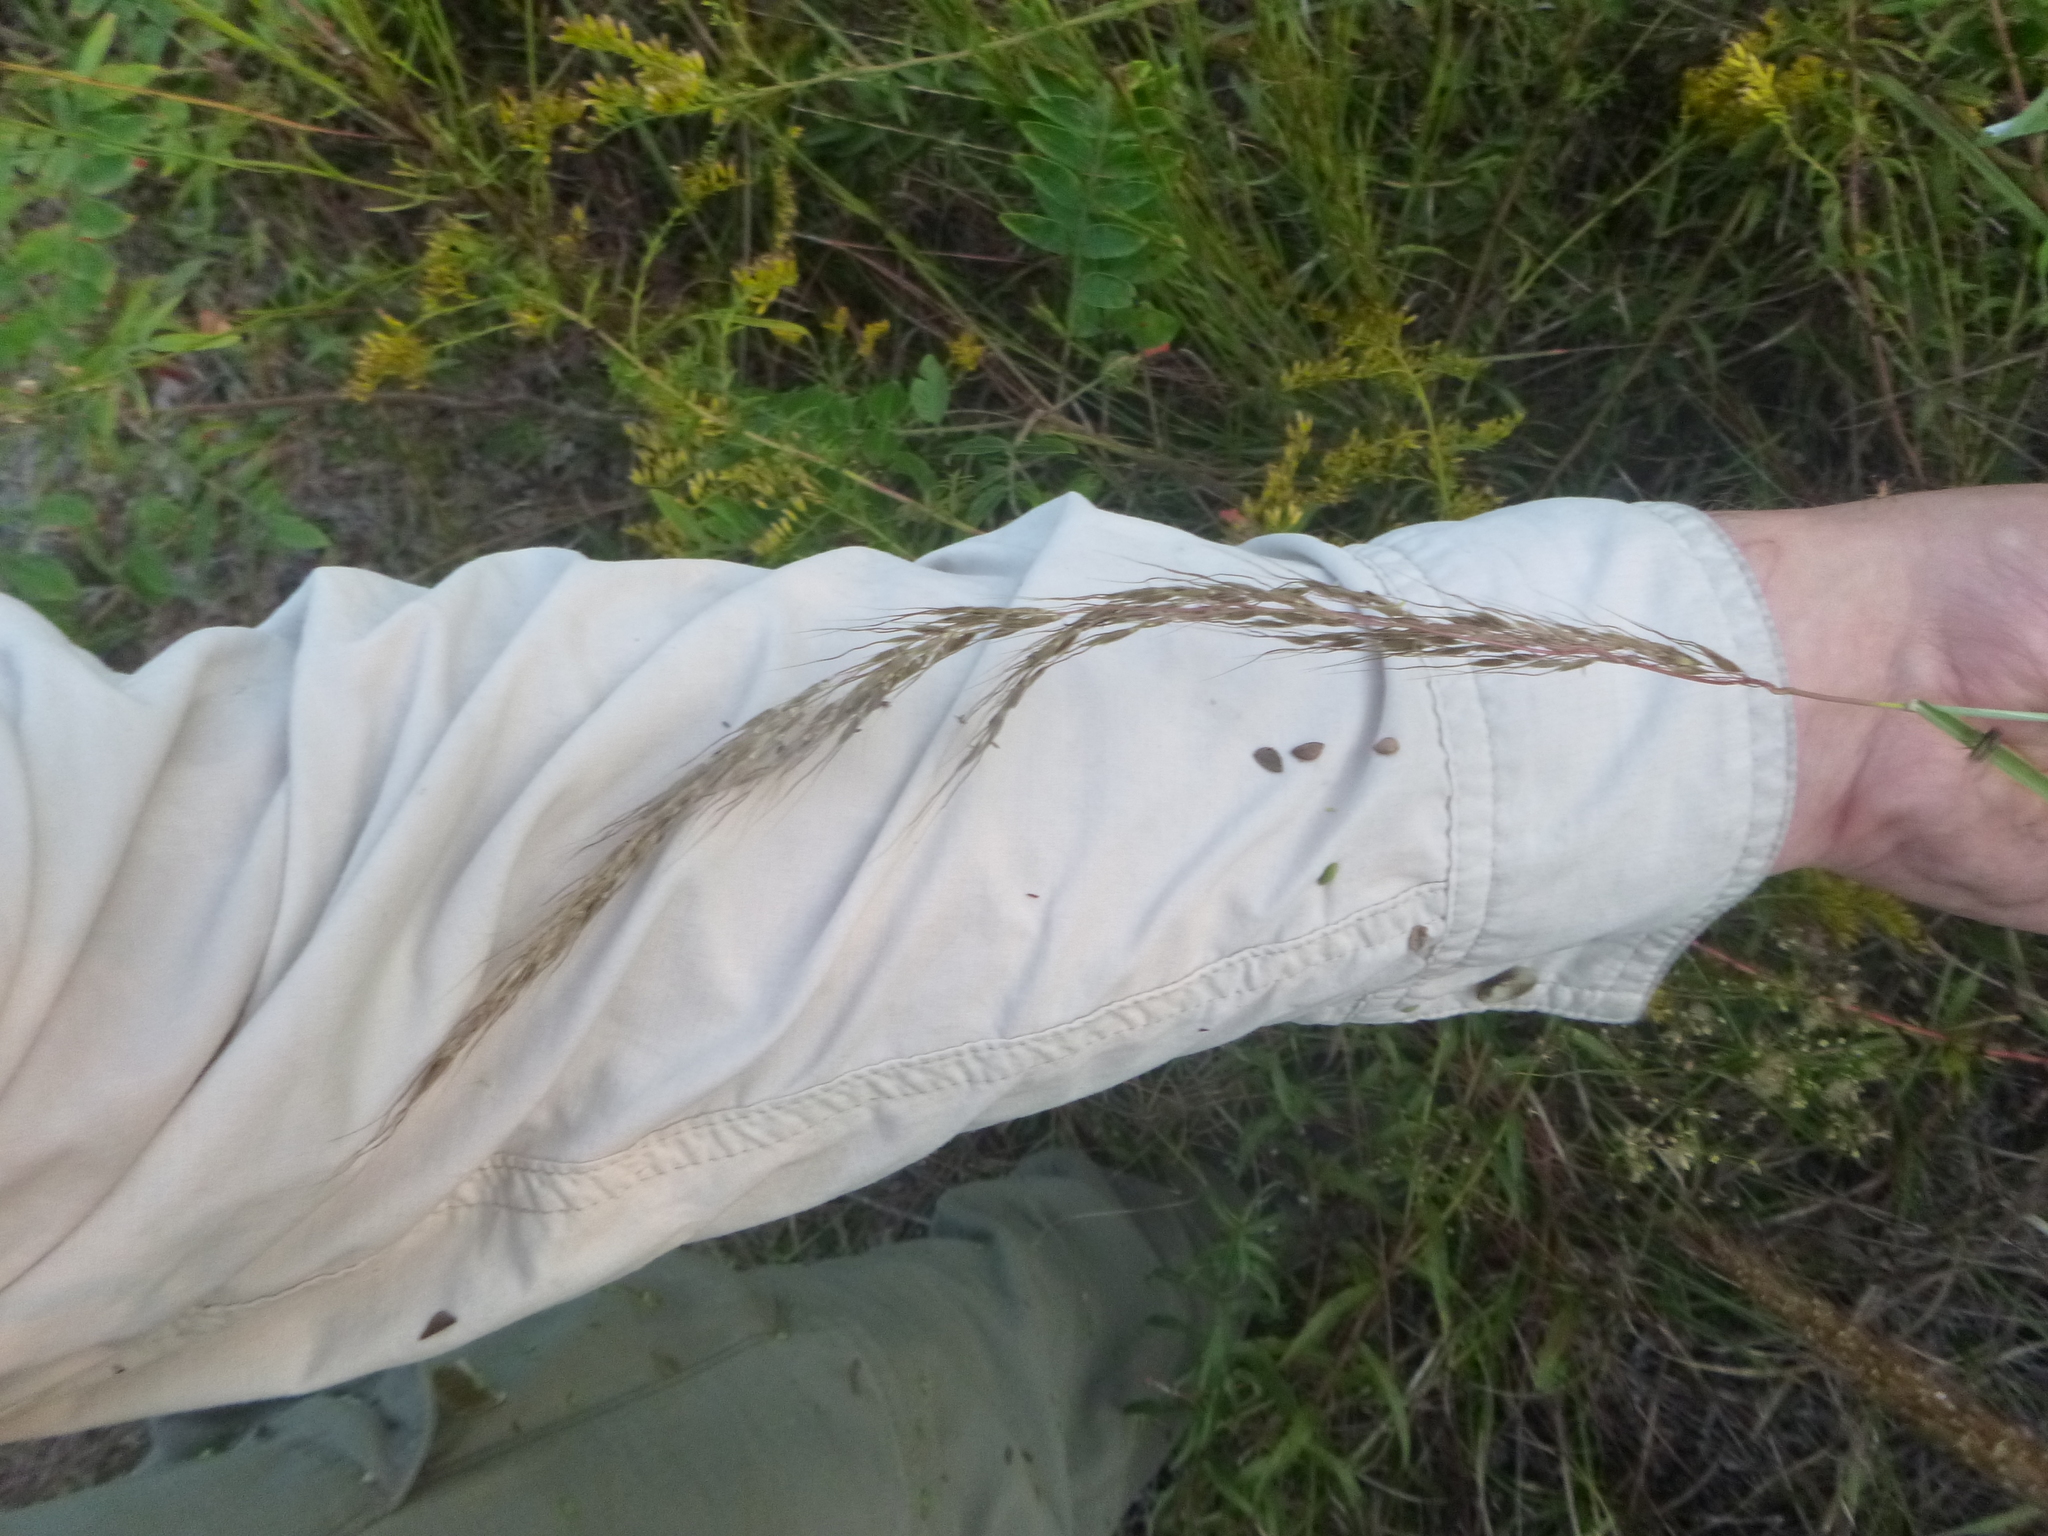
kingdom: Plantae
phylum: Tracheophyta
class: Liliopsida
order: Poales
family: Poaceae
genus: Sorghastrum
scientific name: Sorghastrum elliottii
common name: Slender indian grass
